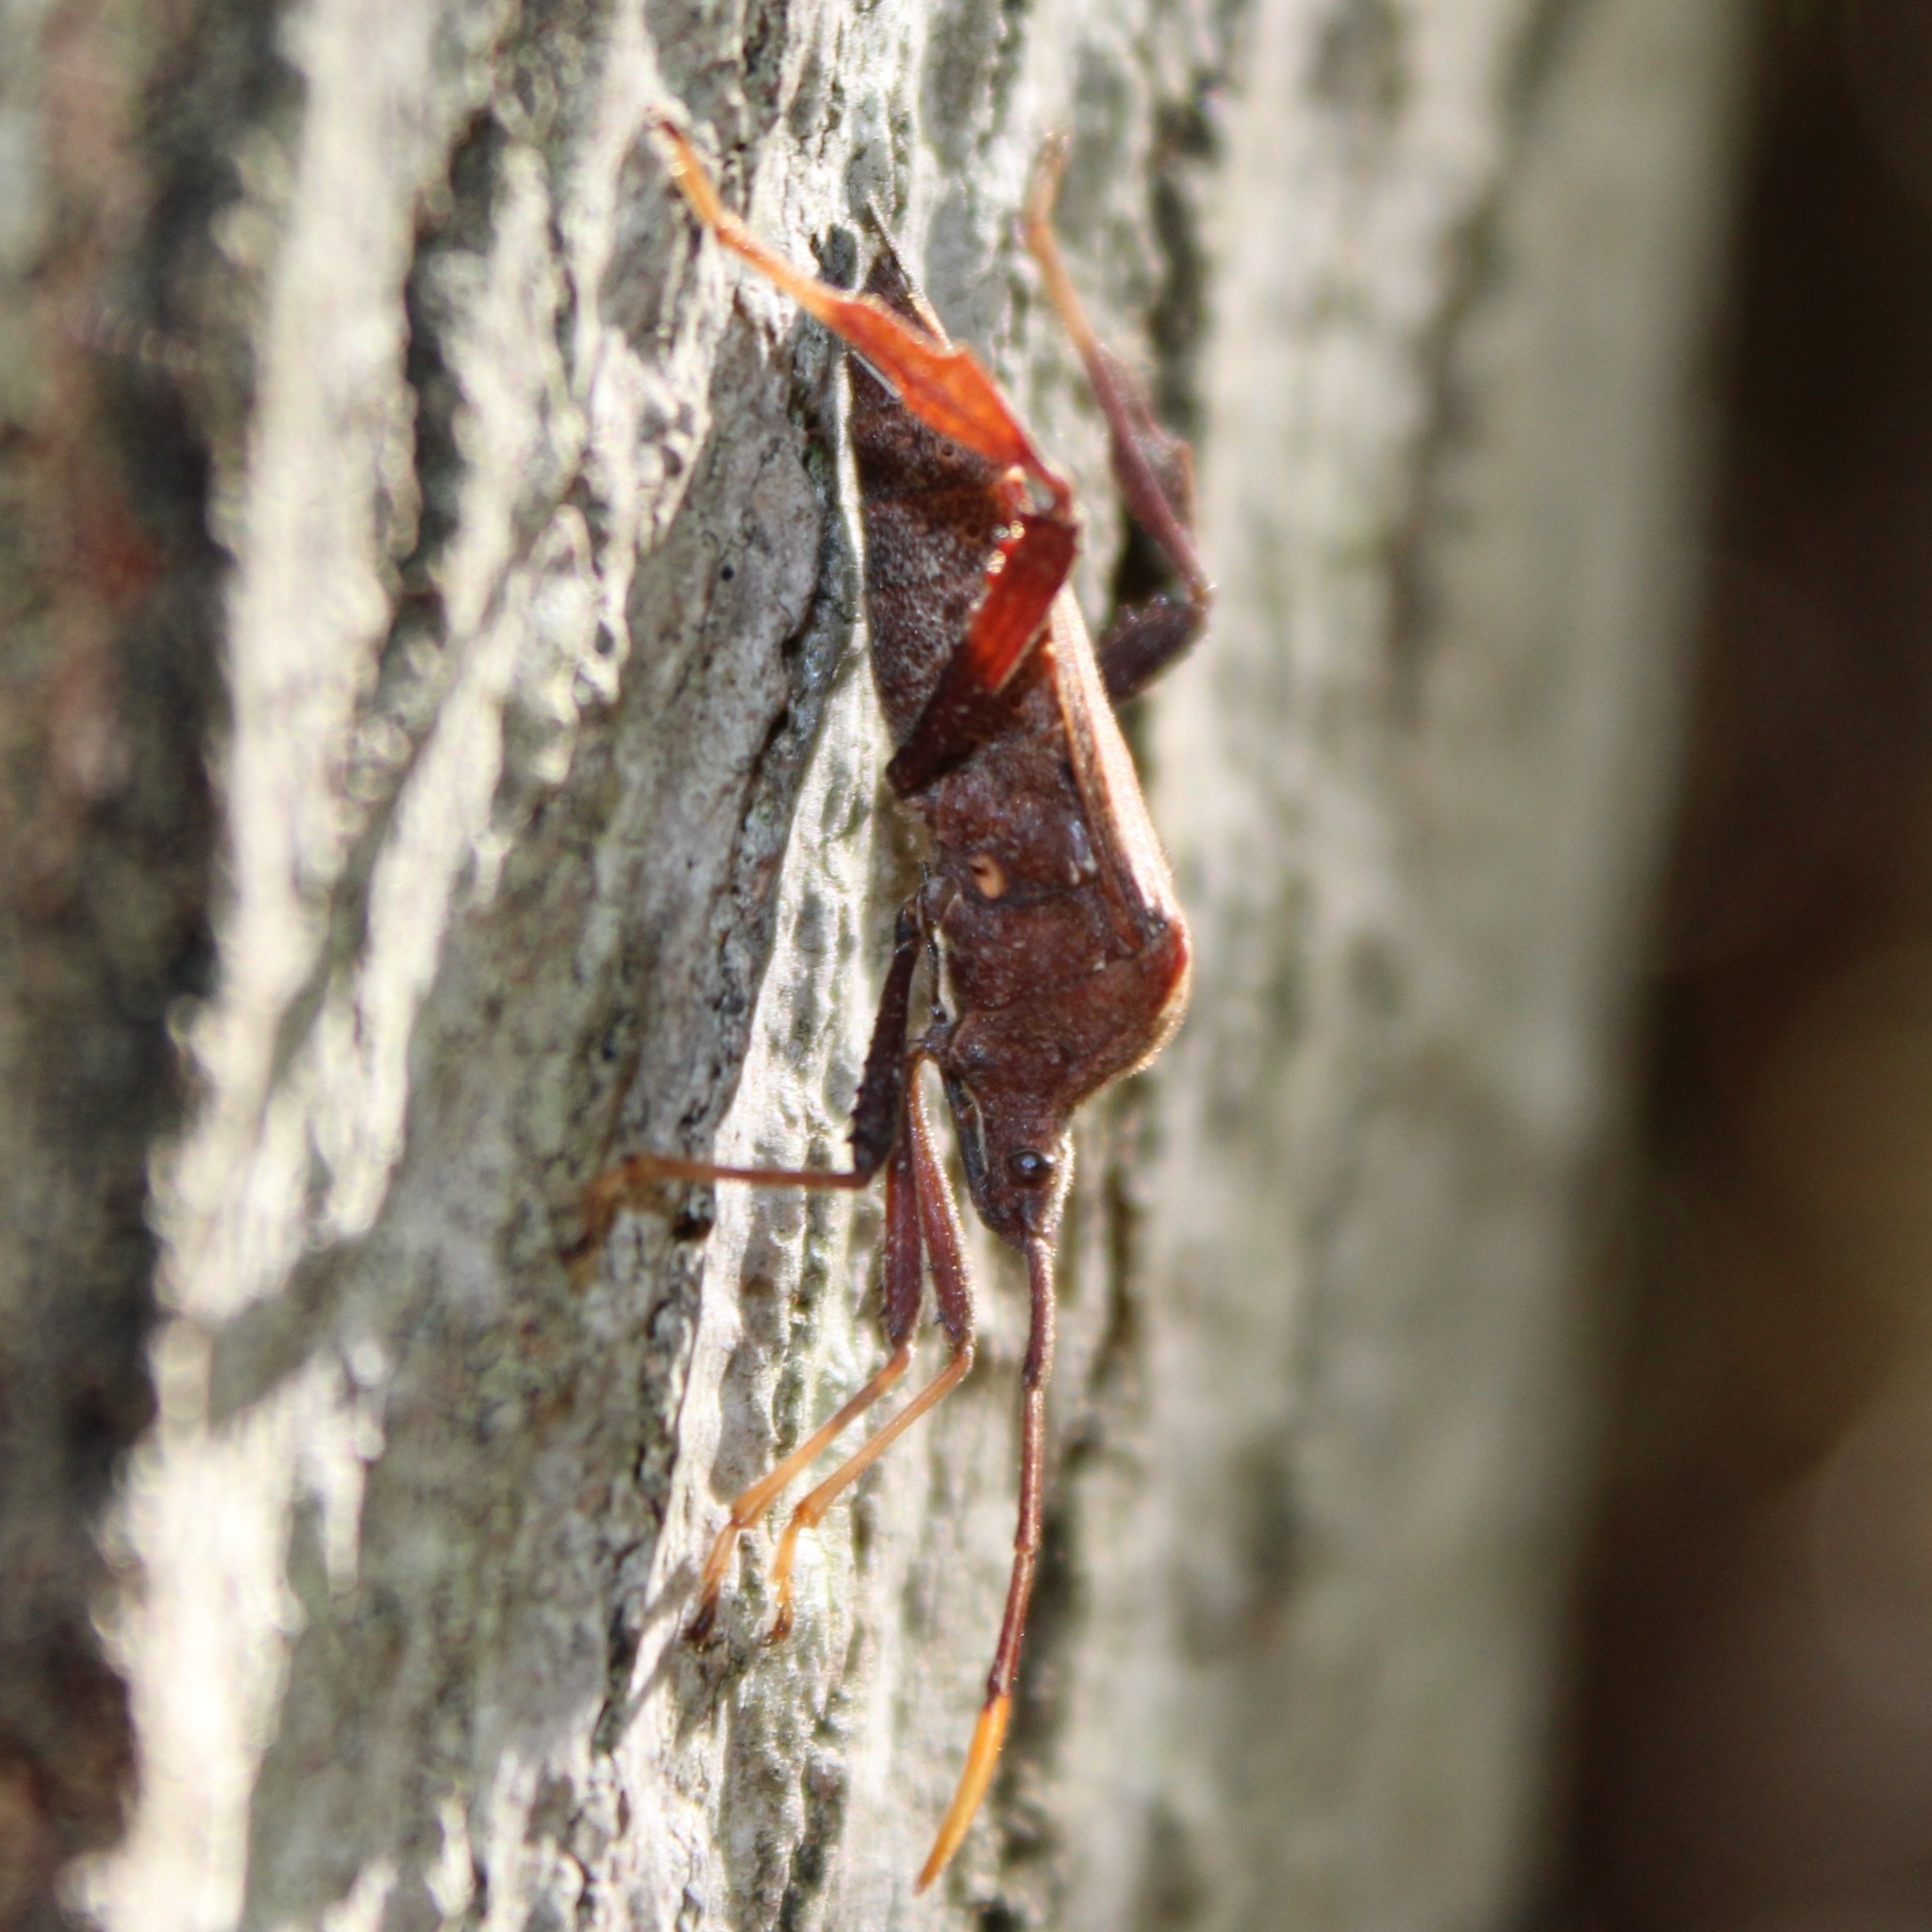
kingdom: Animalia
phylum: Arthropoda
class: Insecta
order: Hemiptera
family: Coreidae
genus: Acanthocephala
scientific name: Acanthocephala terminalis
